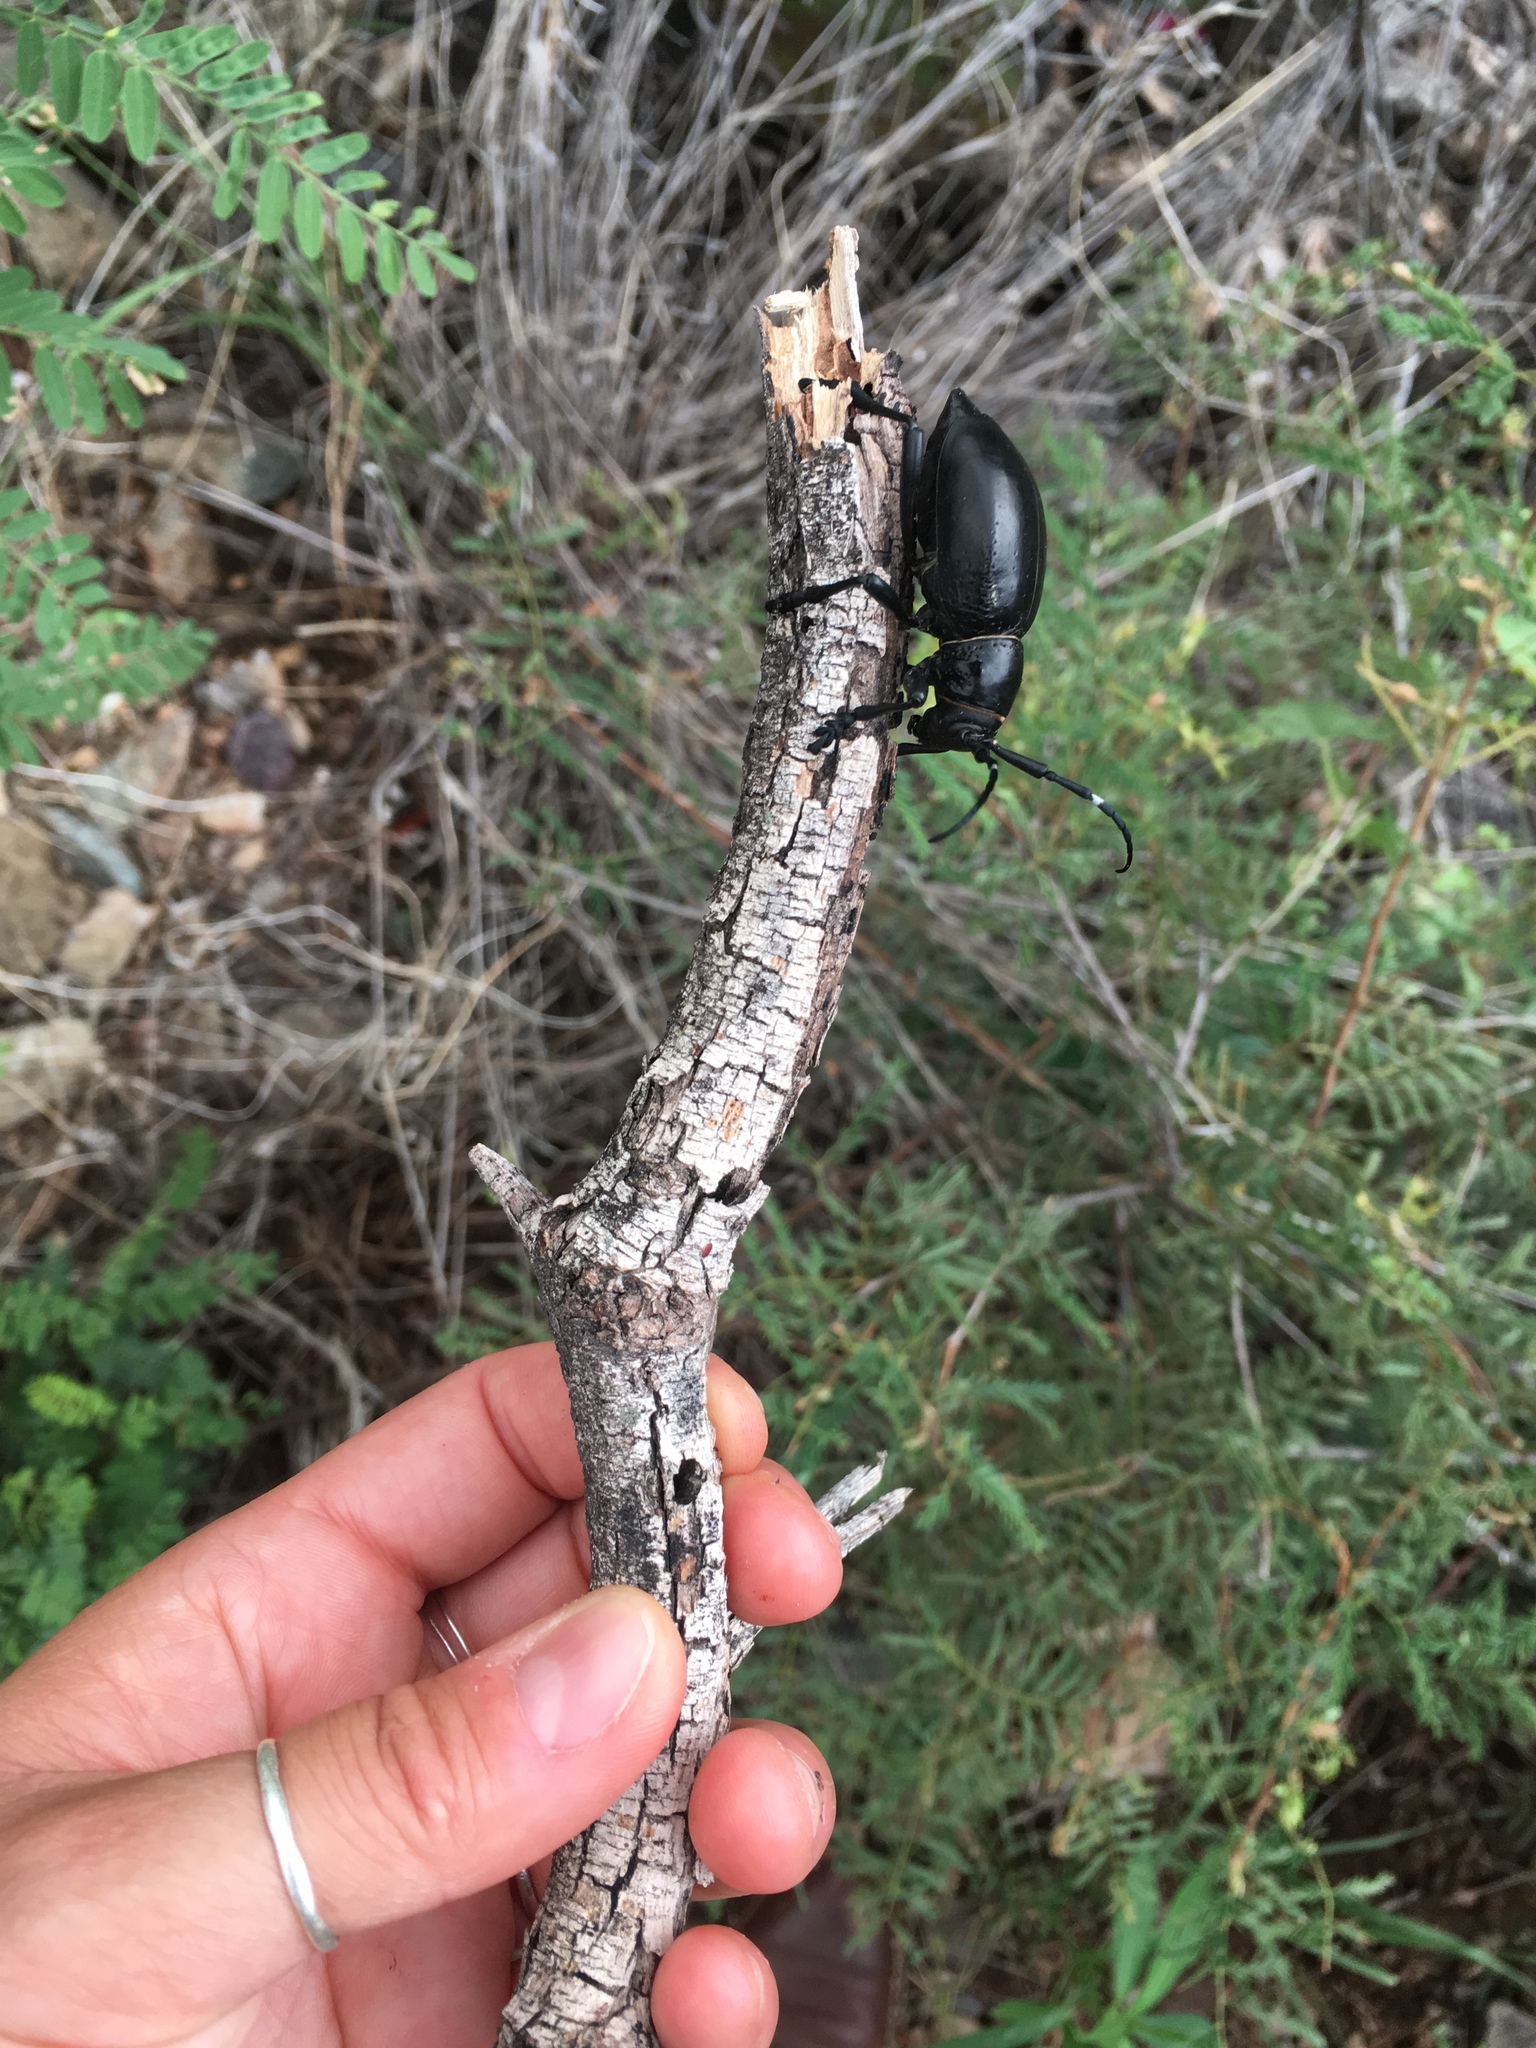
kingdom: Animalia
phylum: Arthropoda
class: Insecta
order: Coleoptera
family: Cerambycidae
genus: Moneilema
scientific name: Moneilema gigas
